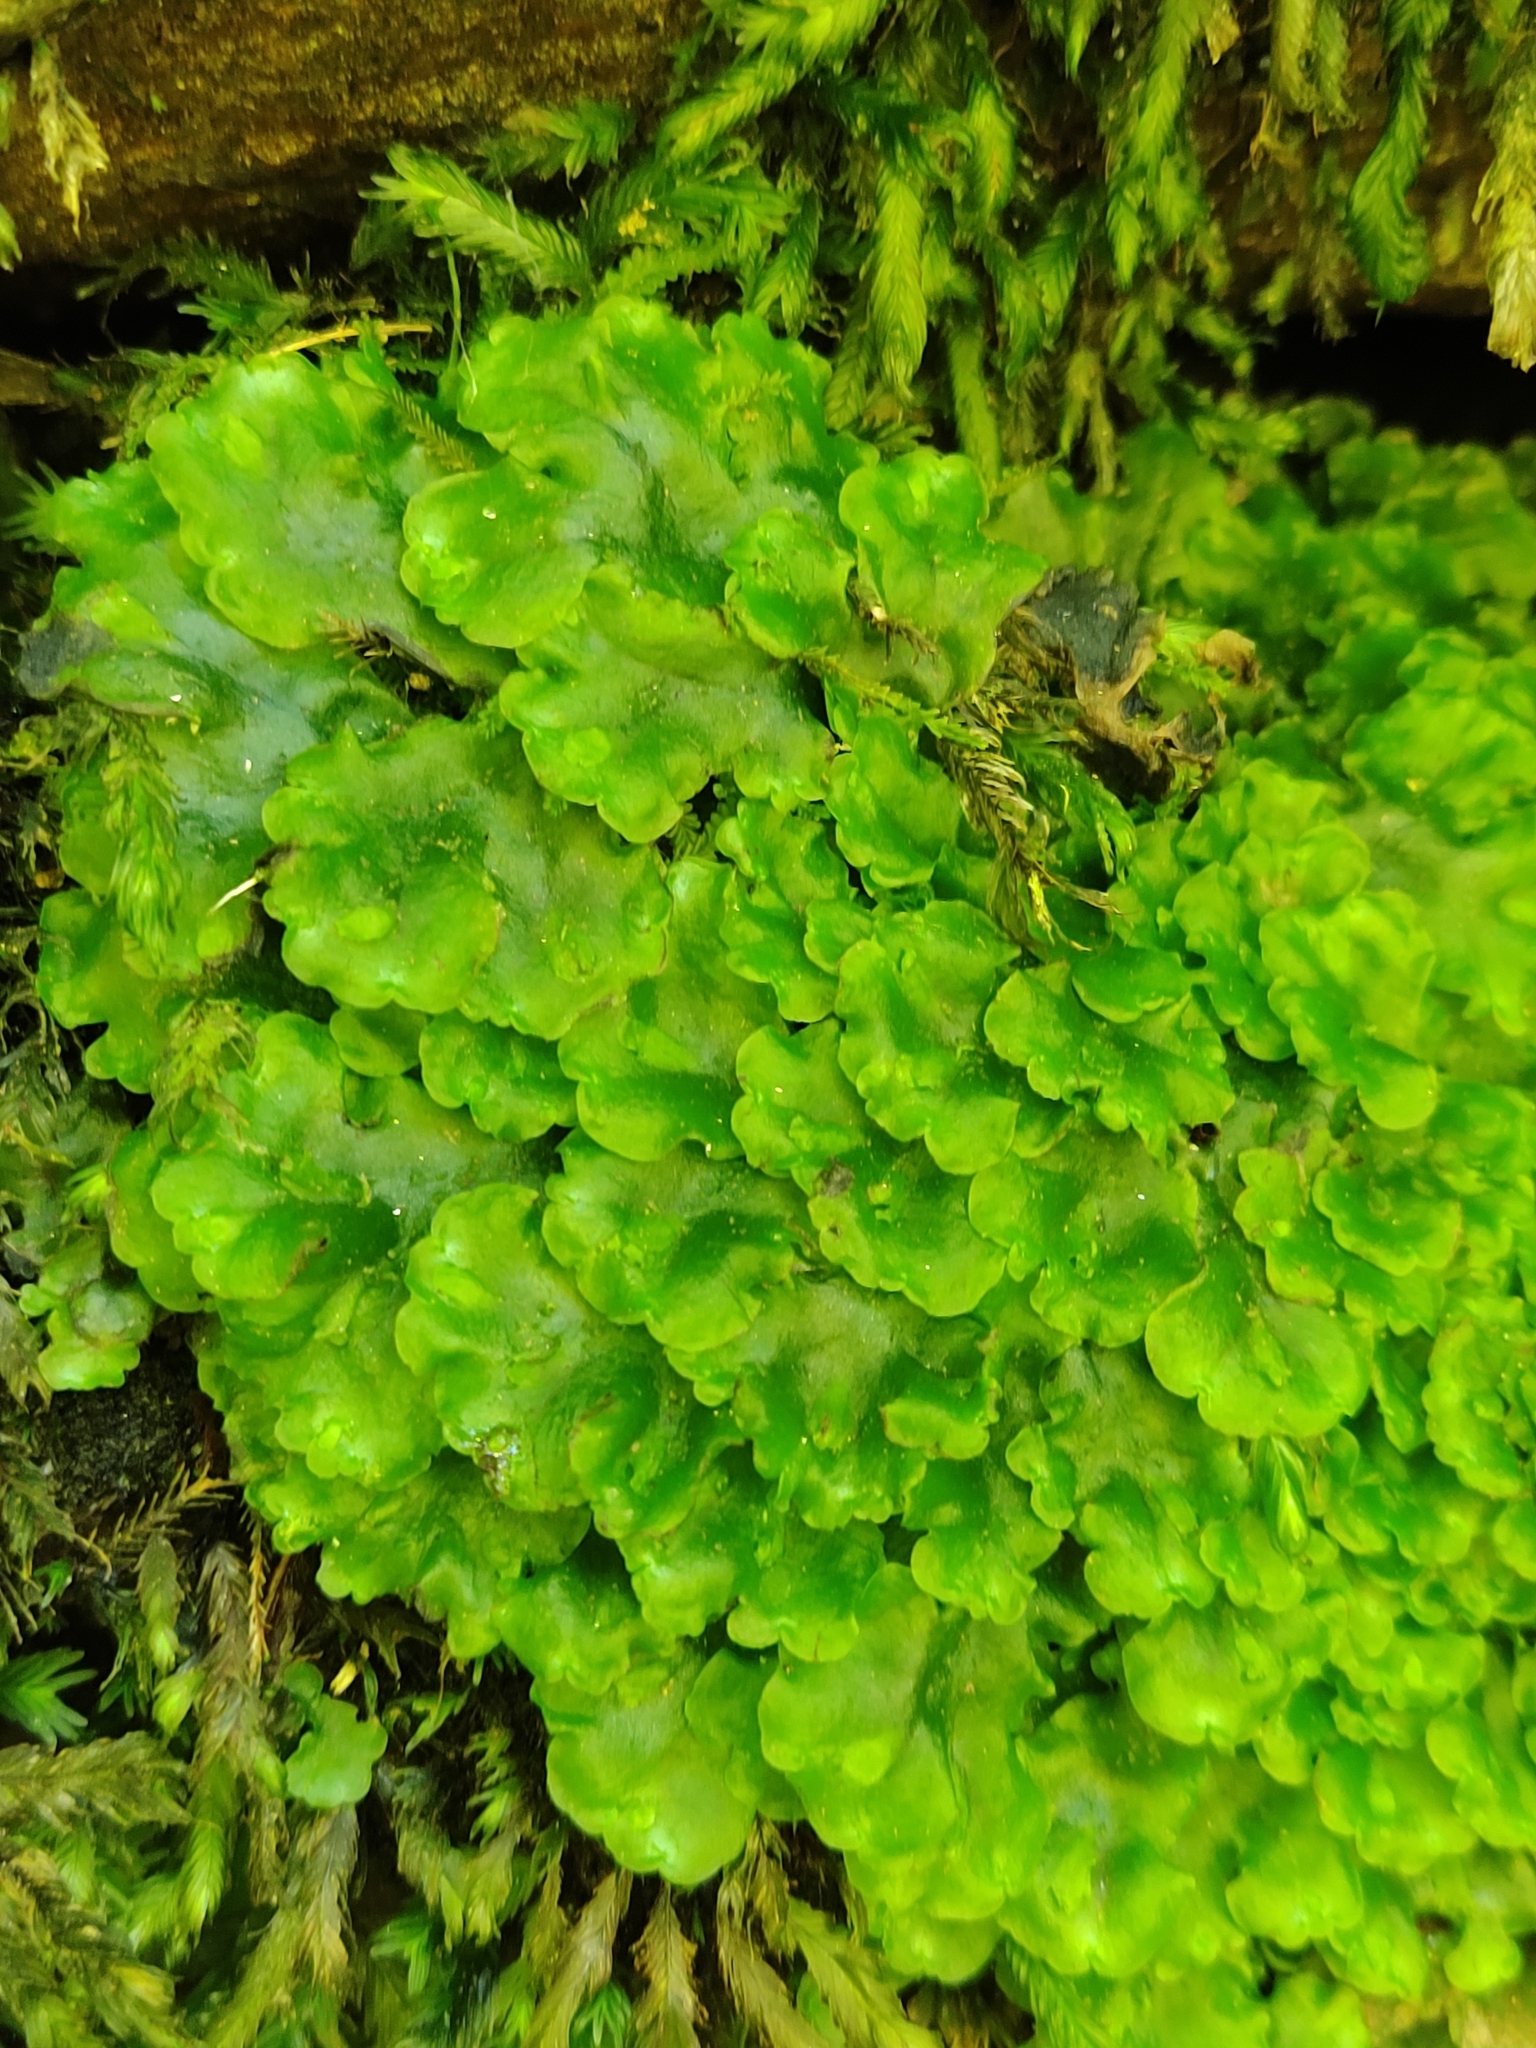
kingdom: Plantae
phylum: Marchantiophyta
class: Jungermanniopsida
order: Pelliales
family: Pelliaceae
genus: Pellia
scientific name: Pellia epiphylla
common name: Common pellia
